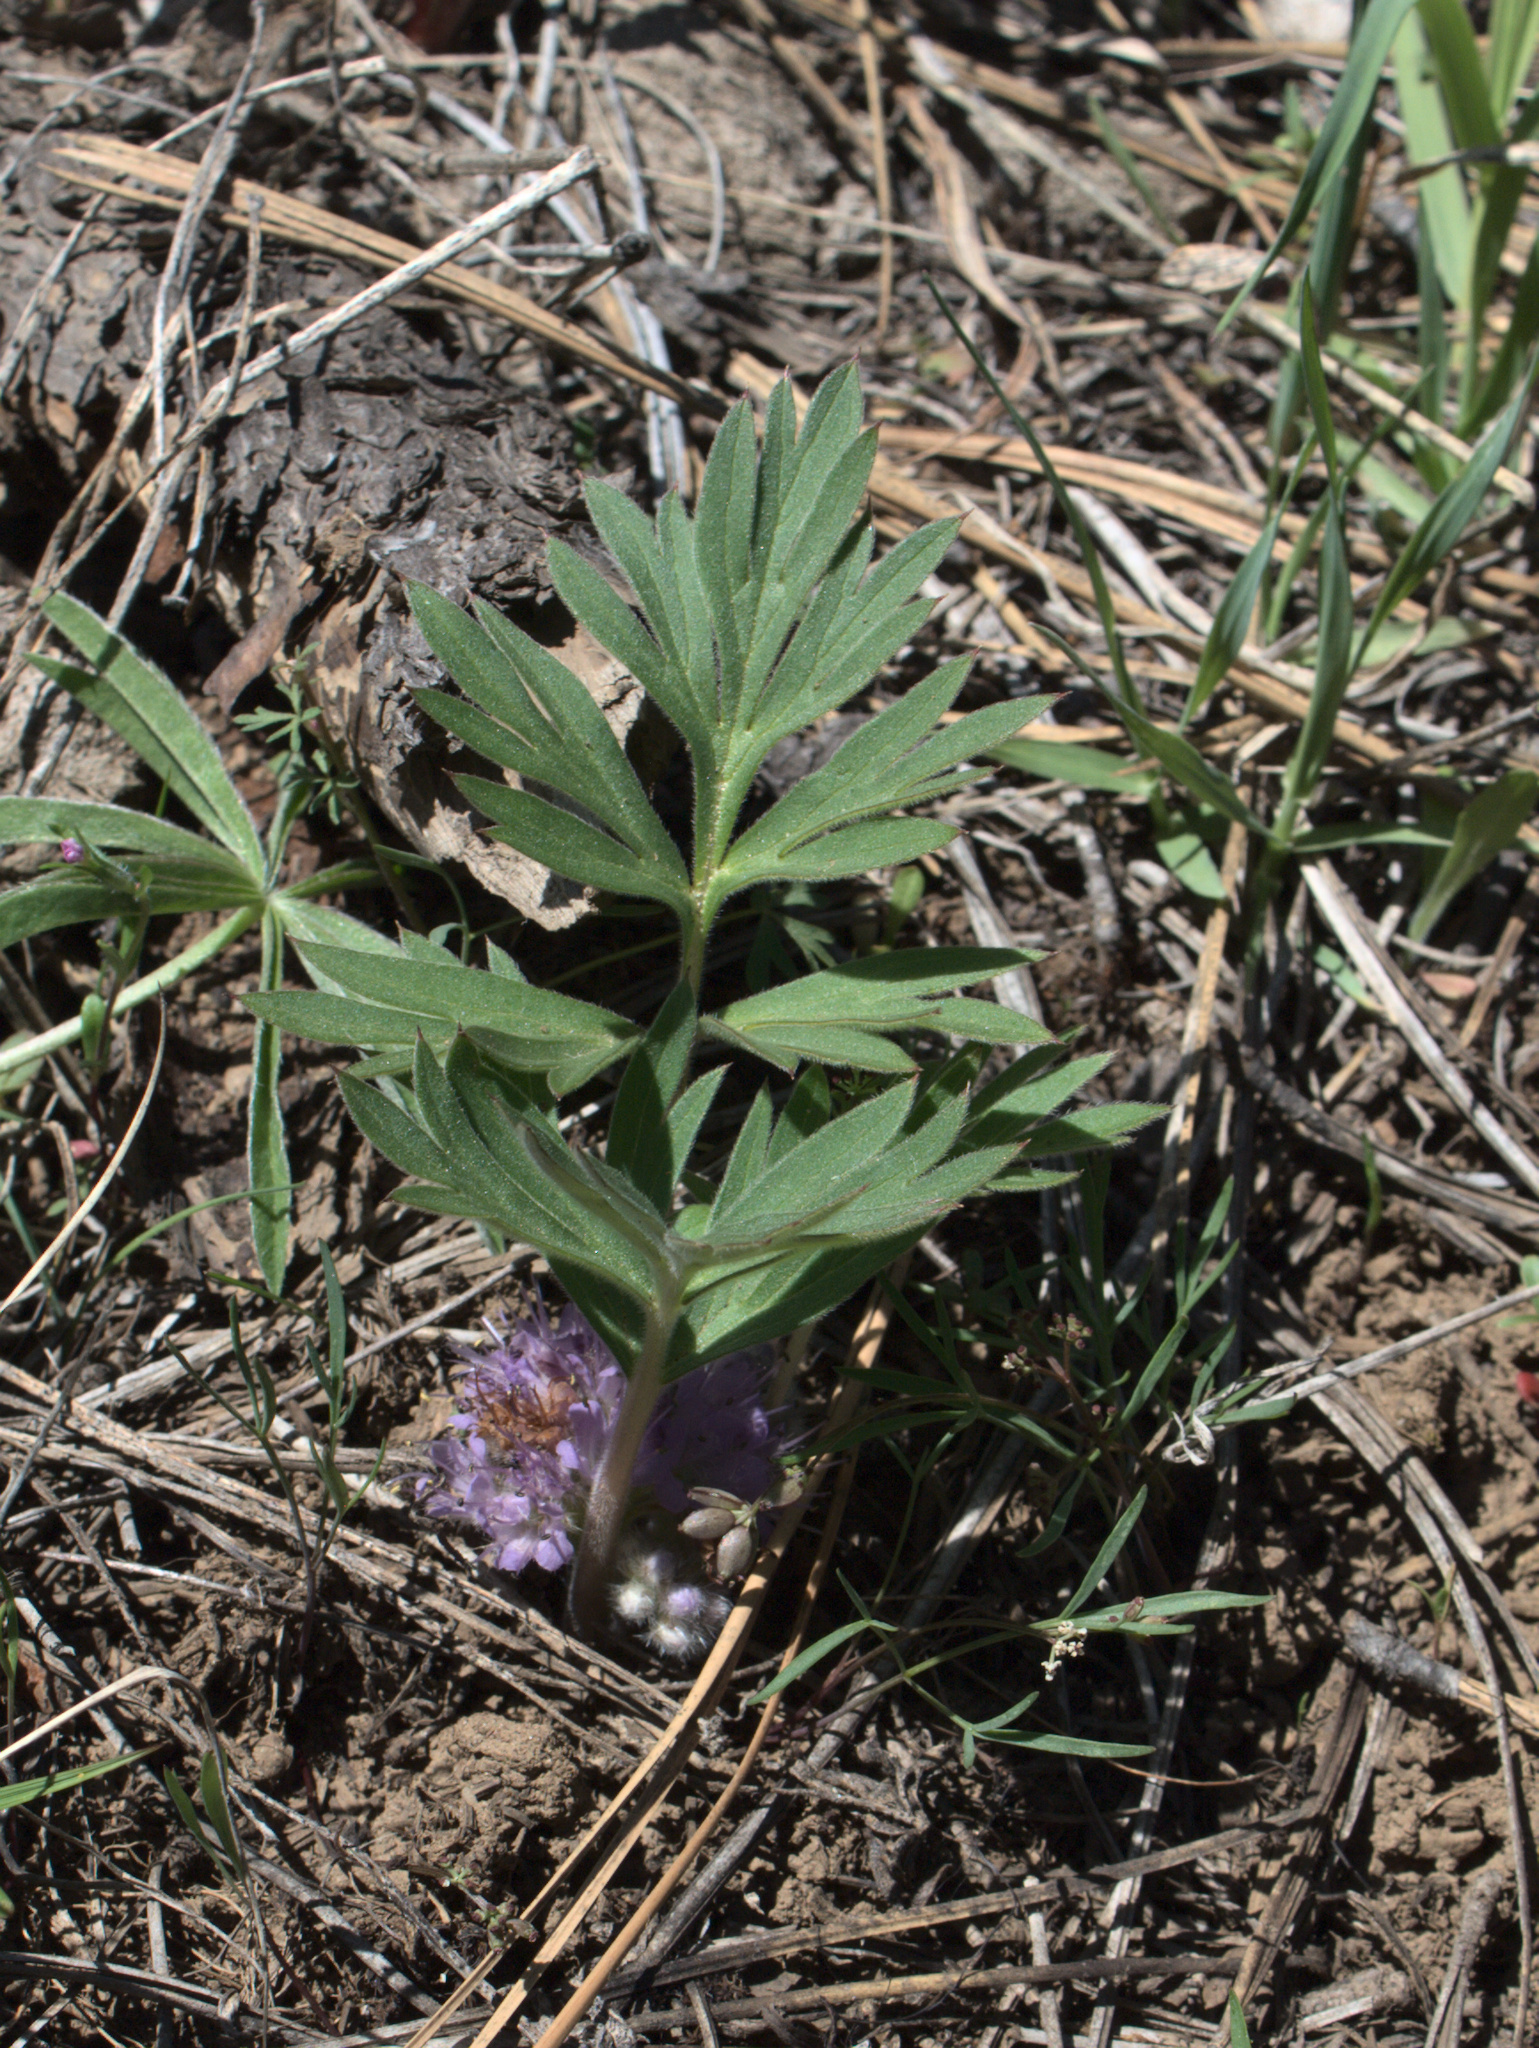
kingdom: Plantae
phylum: Tracheophyta
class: Magnoliopsida
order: Boraginales
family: Hydrophyllaceae
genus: Hydrophyllum
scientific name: Hydrophyllum alpestre
